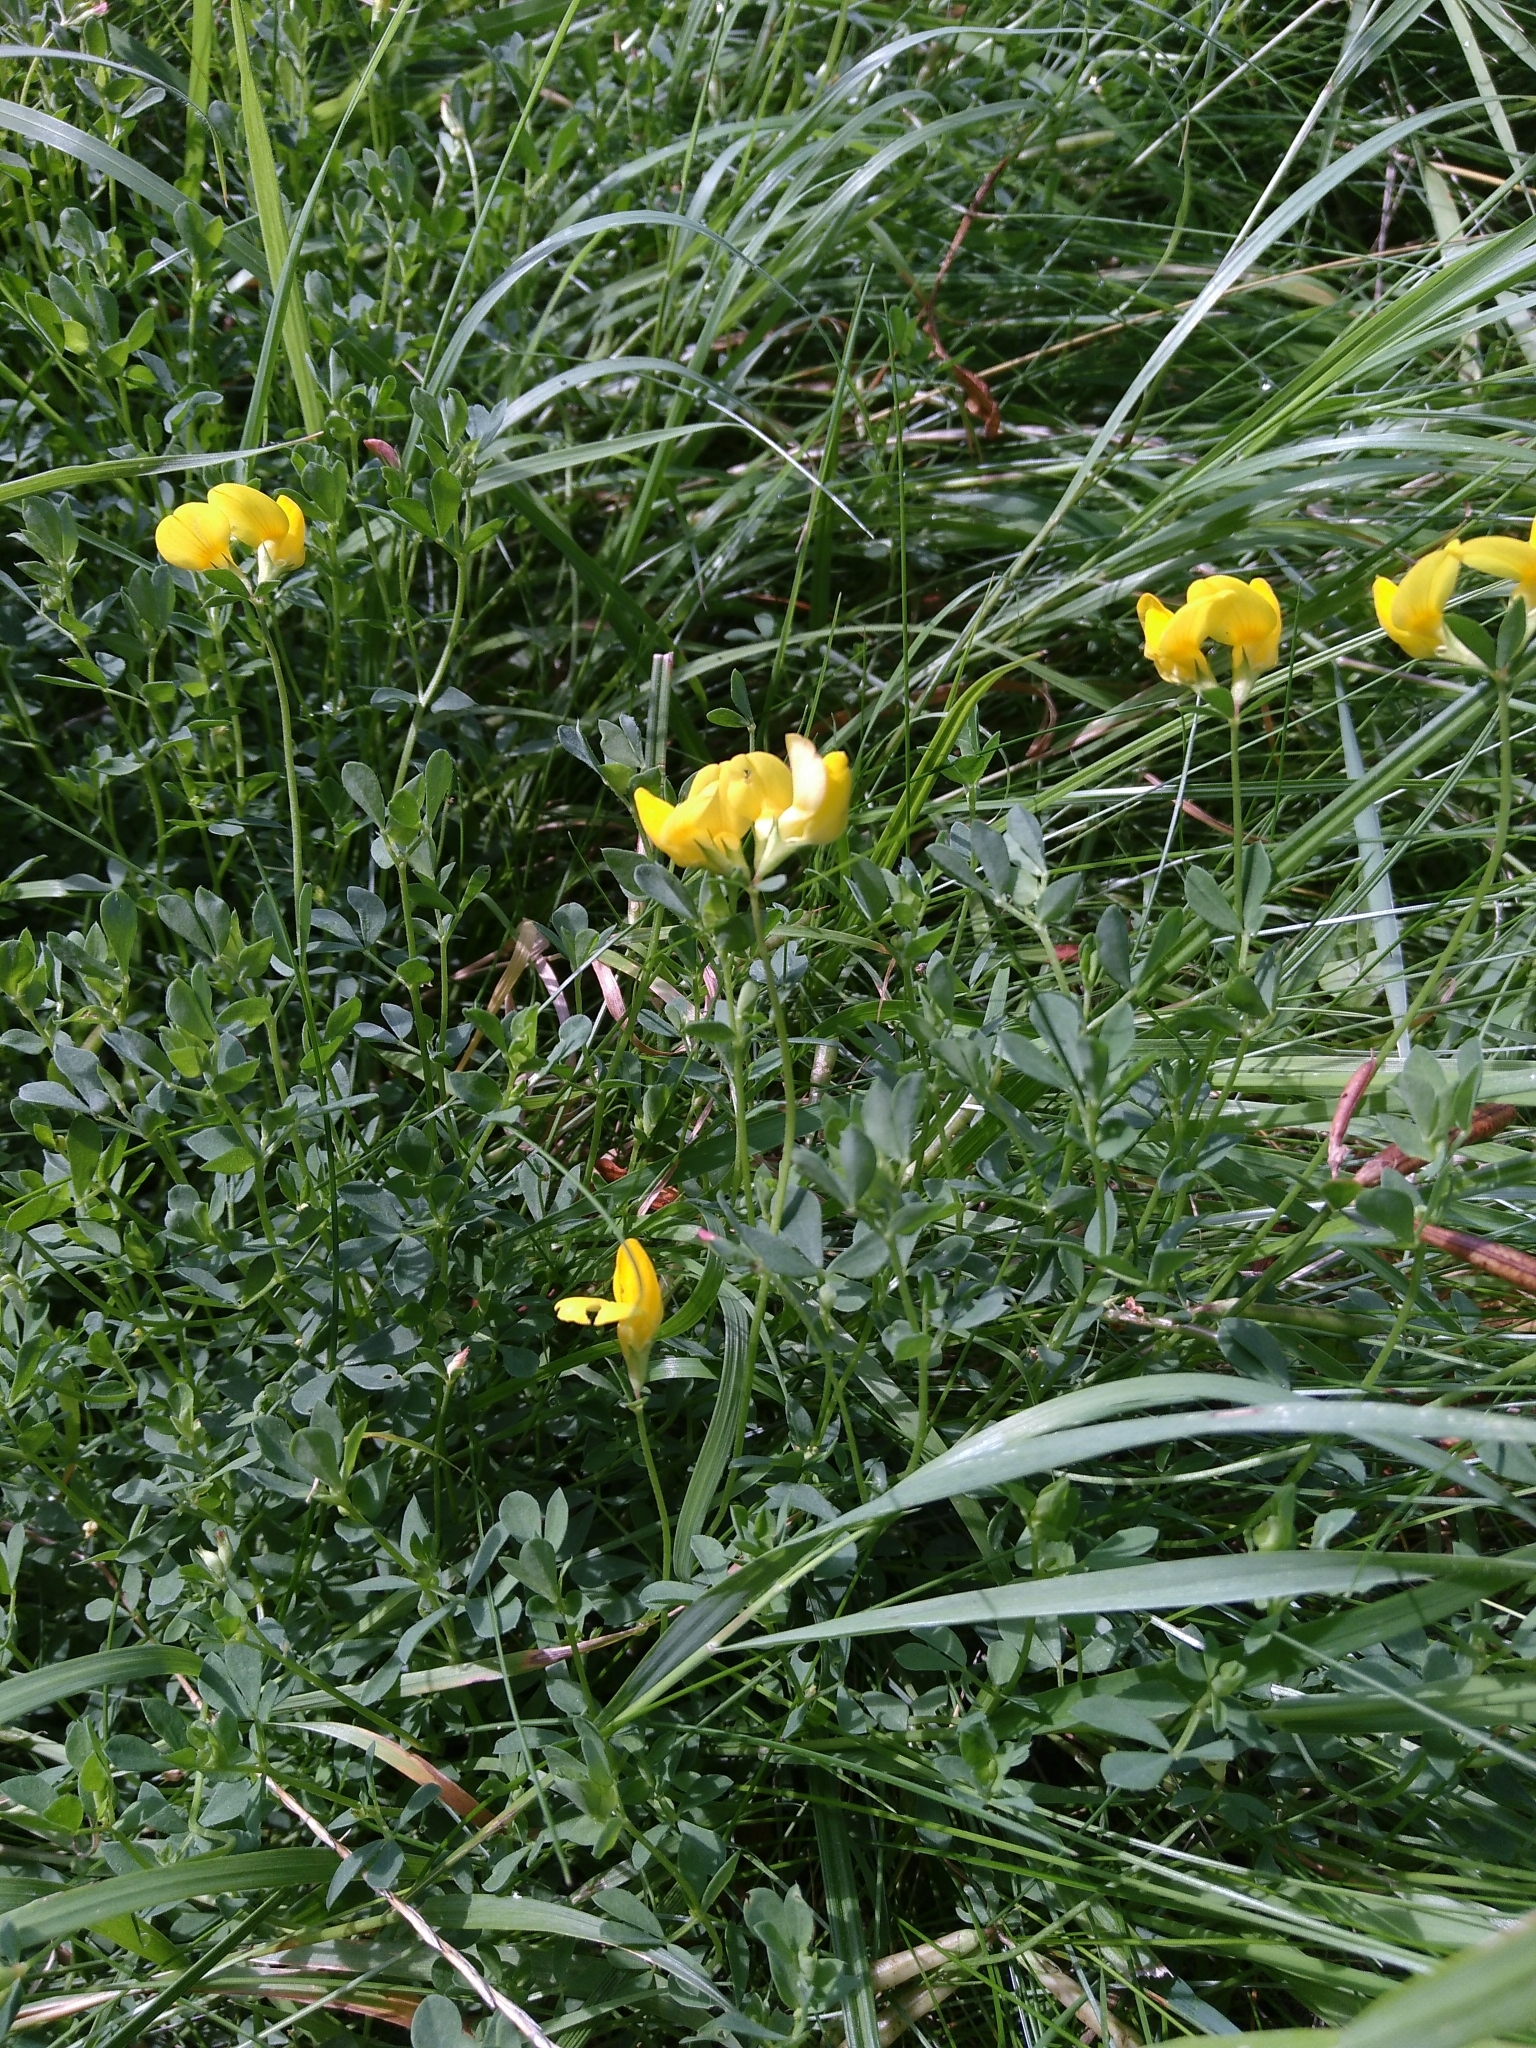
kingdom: Plantae
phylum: Tracheophyta
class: Magnoliopsida
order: Fabales
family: Fabaceae
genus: Lotus
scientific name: Lotus corniculatus
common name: Common bird's-foot-trefoil
